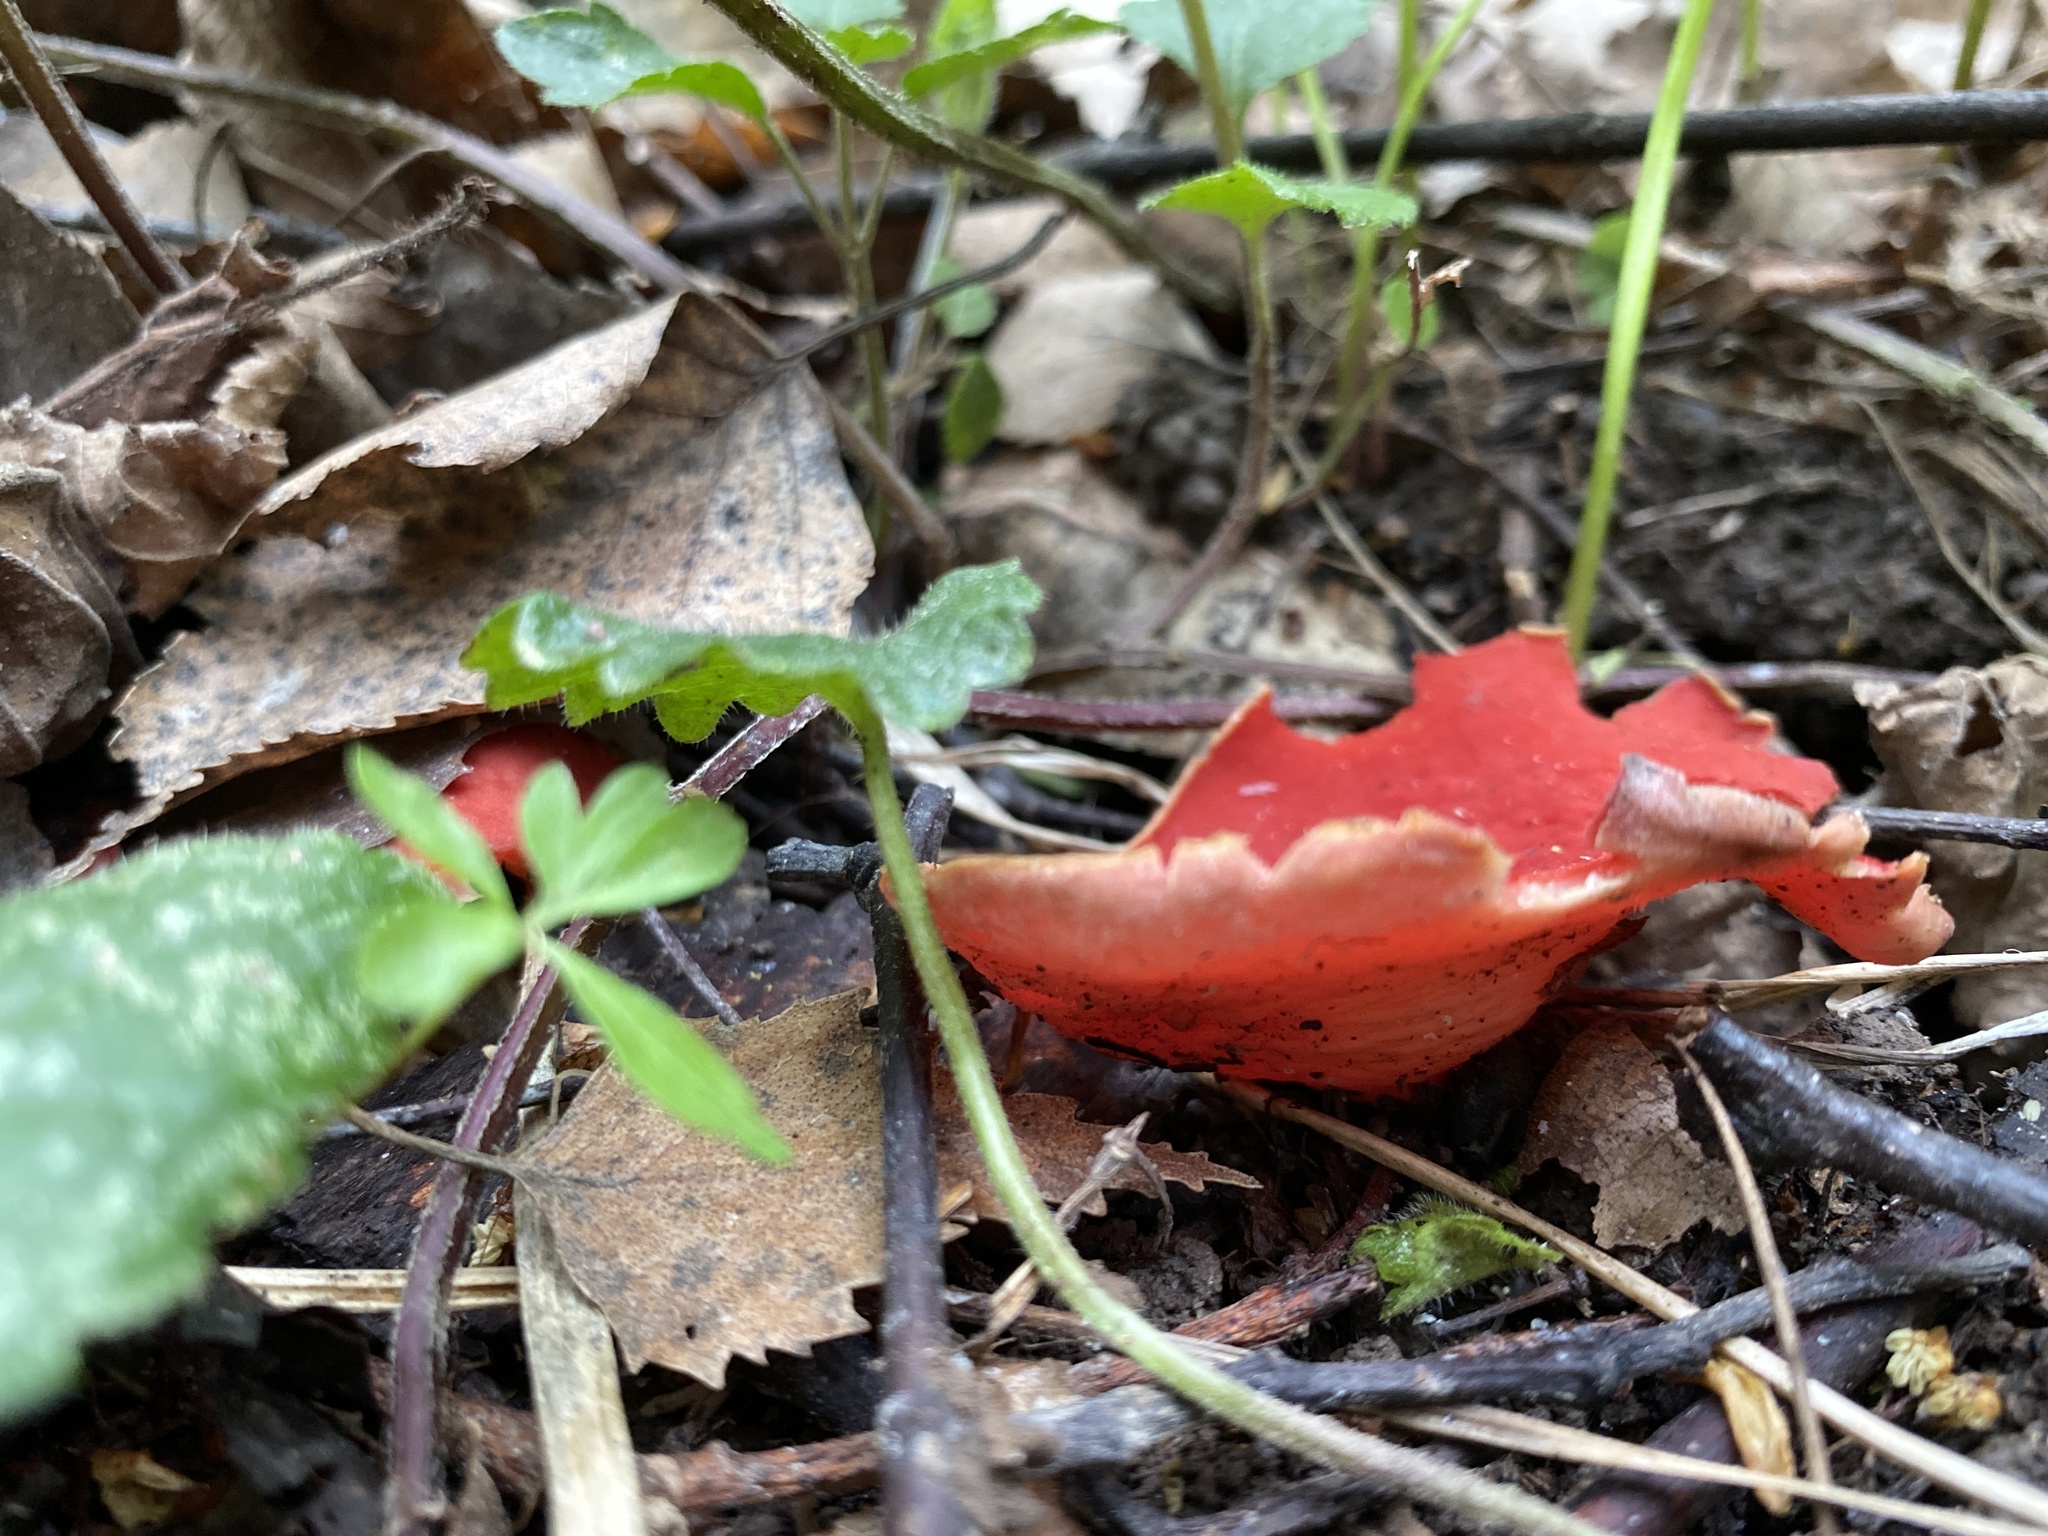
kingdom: Fungi
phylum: Ascomycota
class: Pezizomycetes
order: Pezizales
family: Sarcoscyphaceae
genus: Sarcoscypha
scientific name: Sarcoscypha austriaca
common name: Scarlet elfcup
